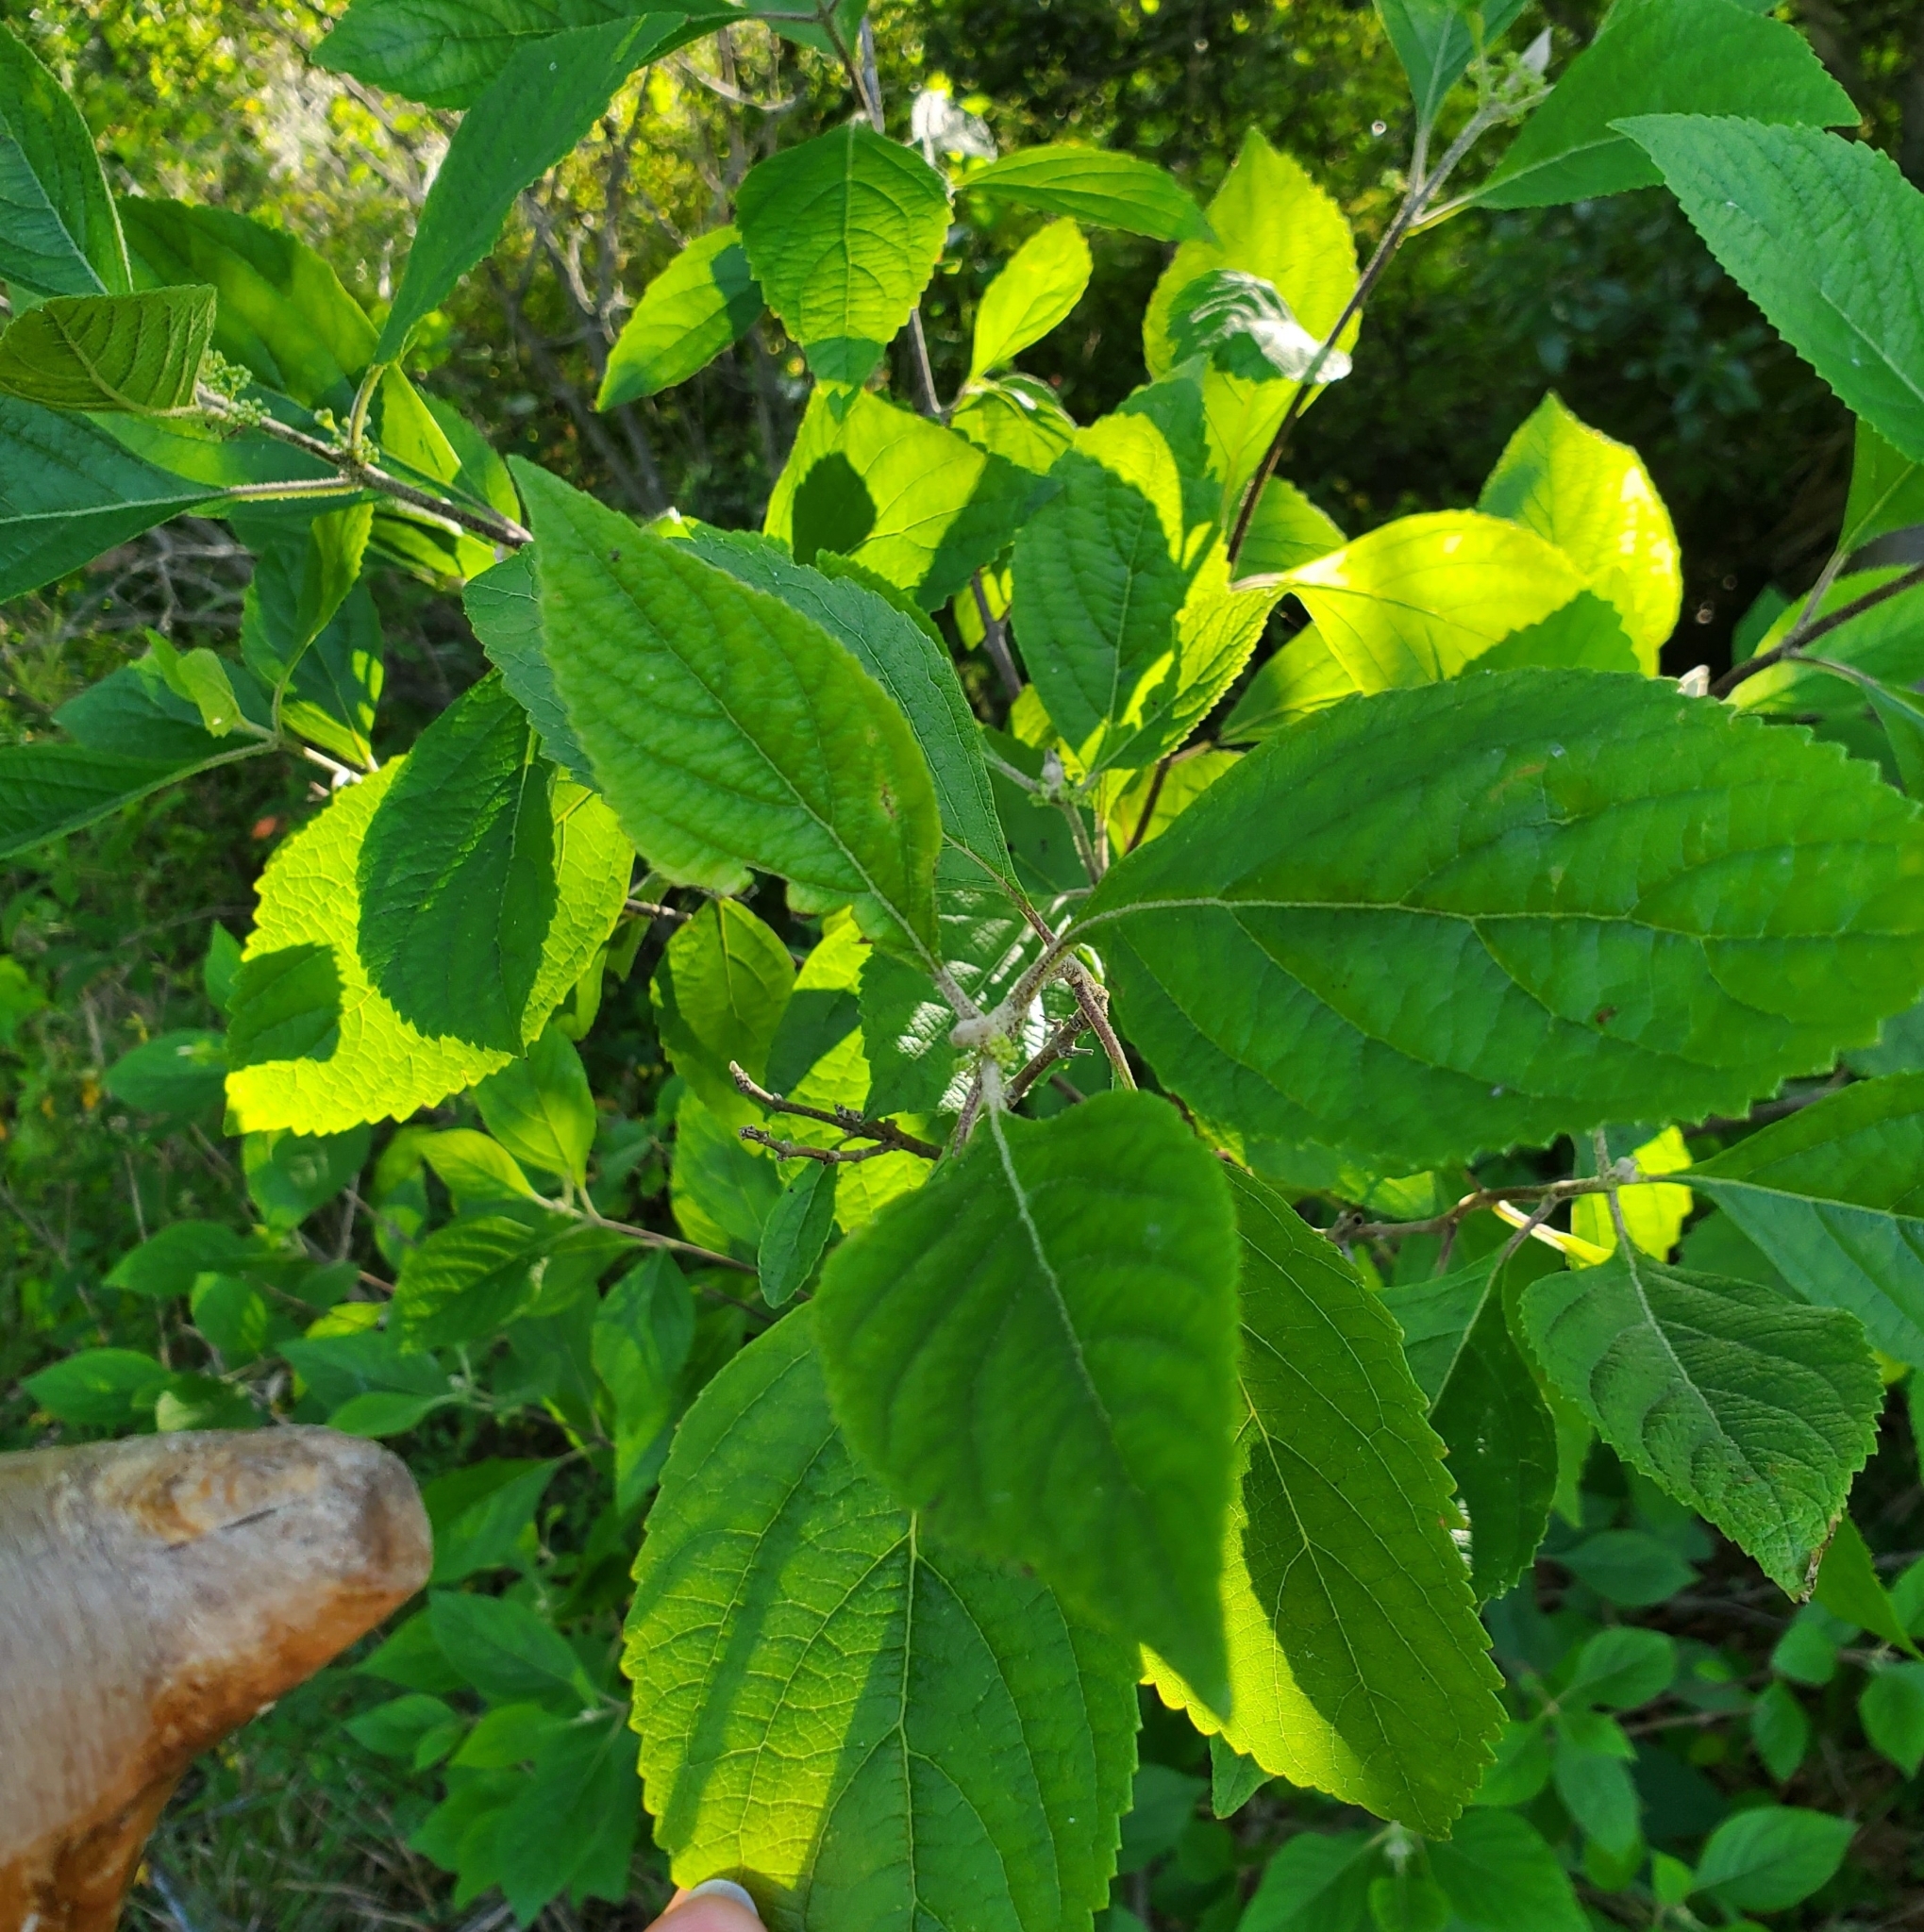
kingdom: Plantae
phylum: Tracheophyta
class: Magnoliopsida
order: Lamiales
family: Lamiaceae
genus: Callicarpa
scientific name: Callicarpa americana
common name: American beautyberry
